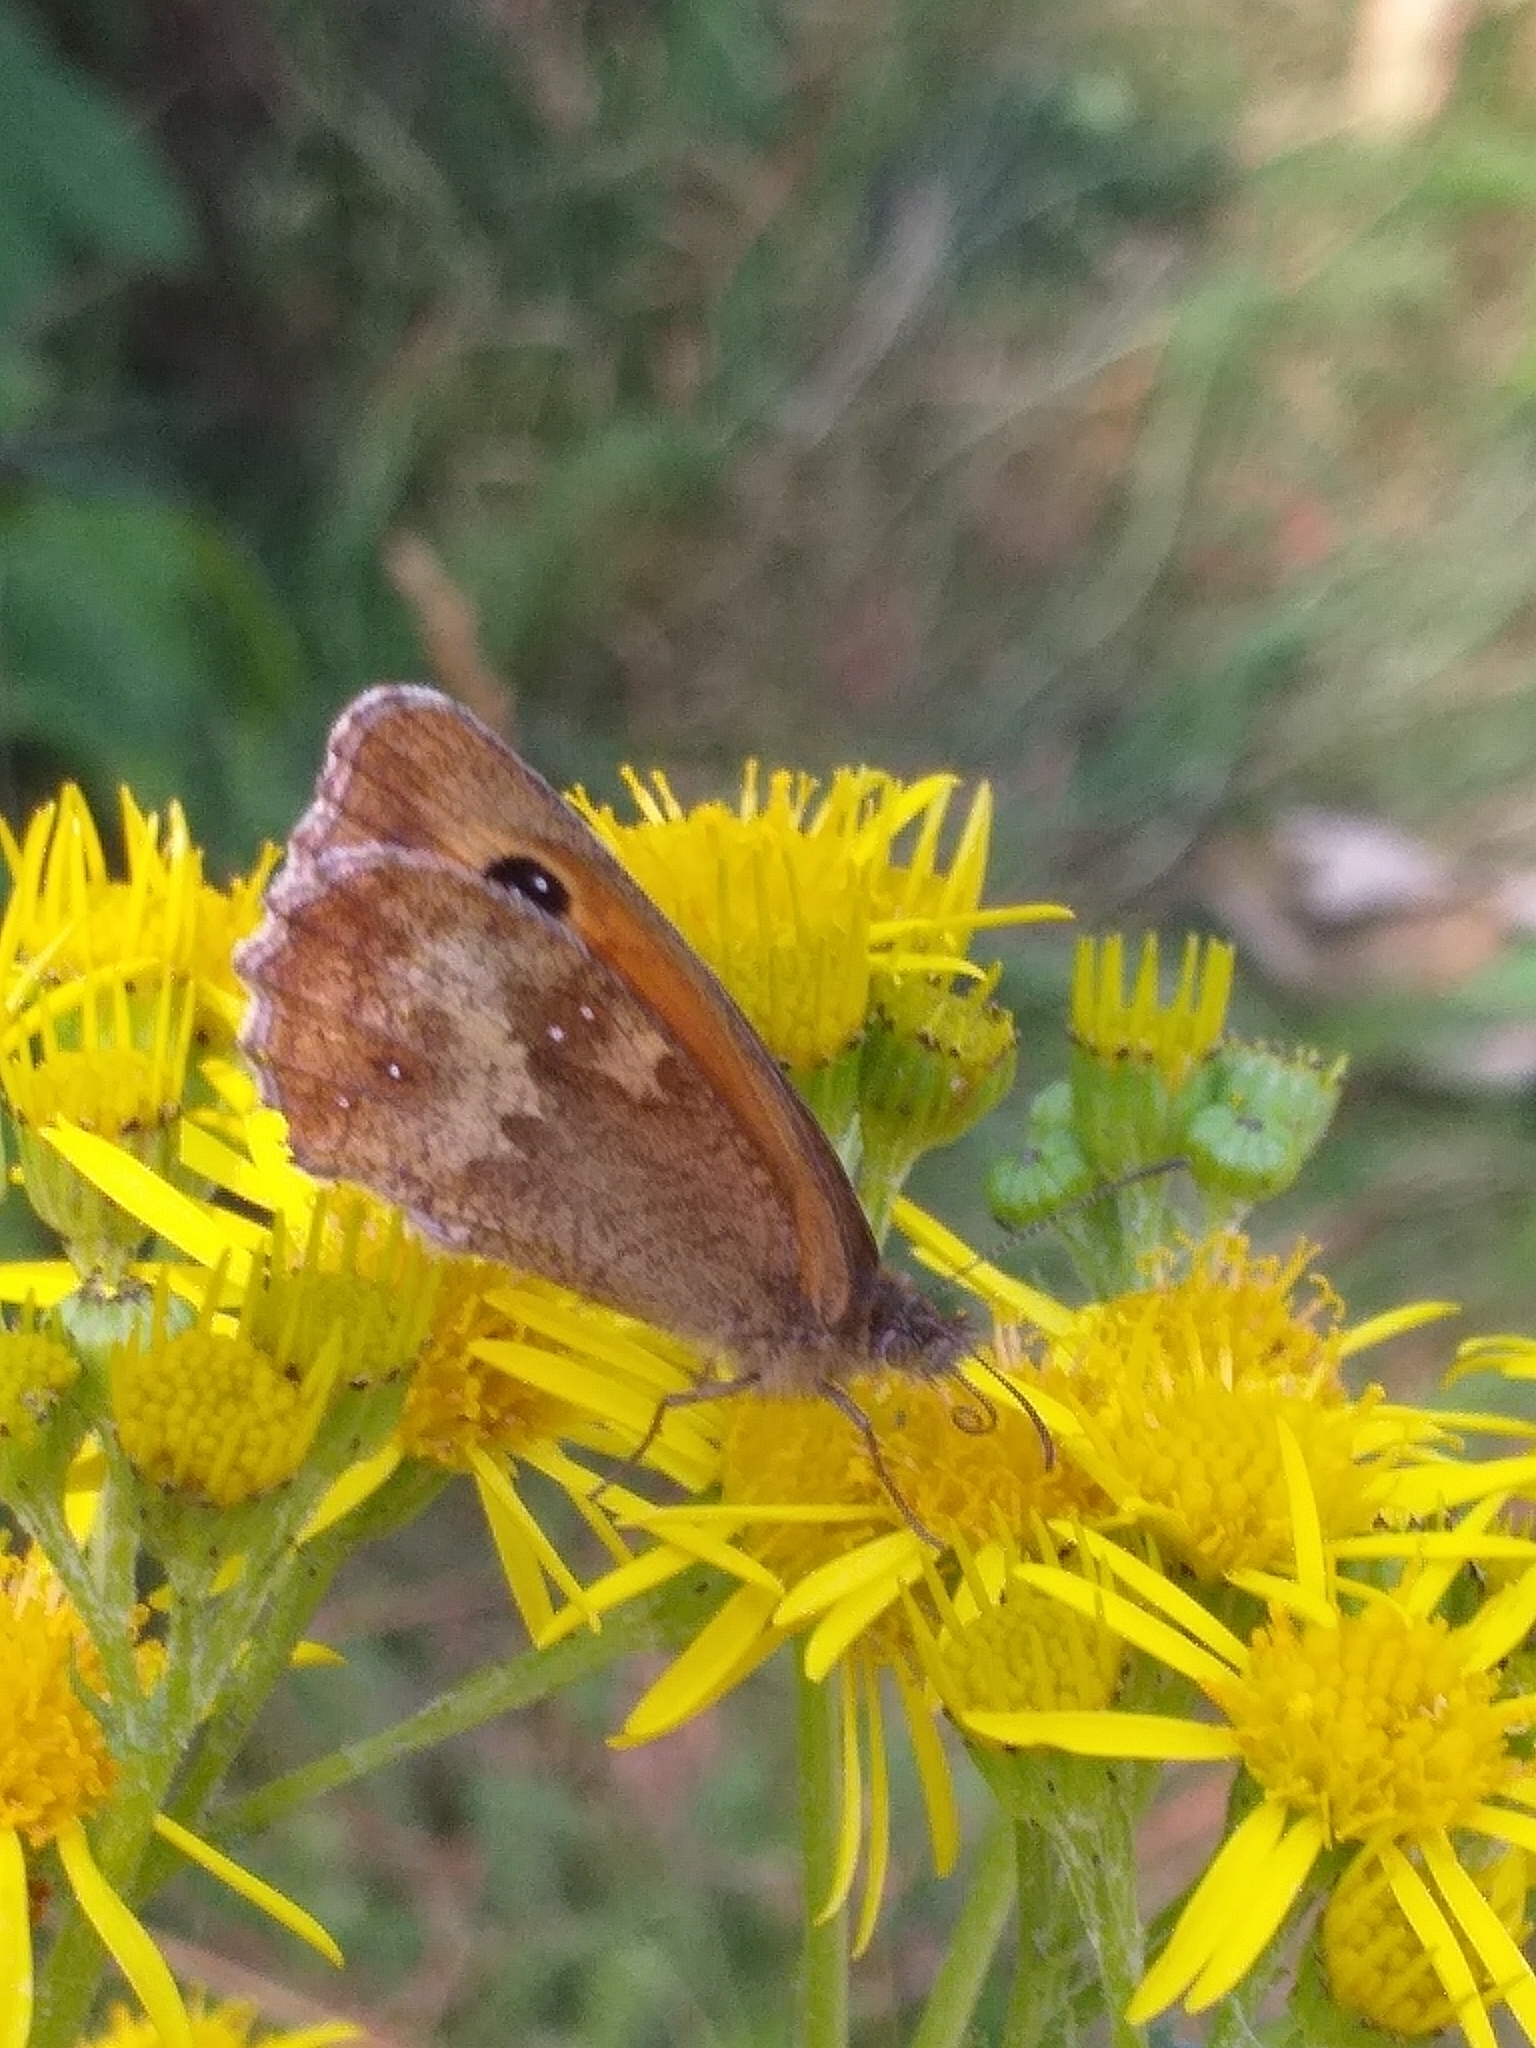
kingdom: Animalia
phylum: Arthropoda
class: Insecta
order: Lepidoptera
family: Nymphalidae
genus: Pyronia
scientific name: Pyronia tithonus
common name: Gatekeeper
